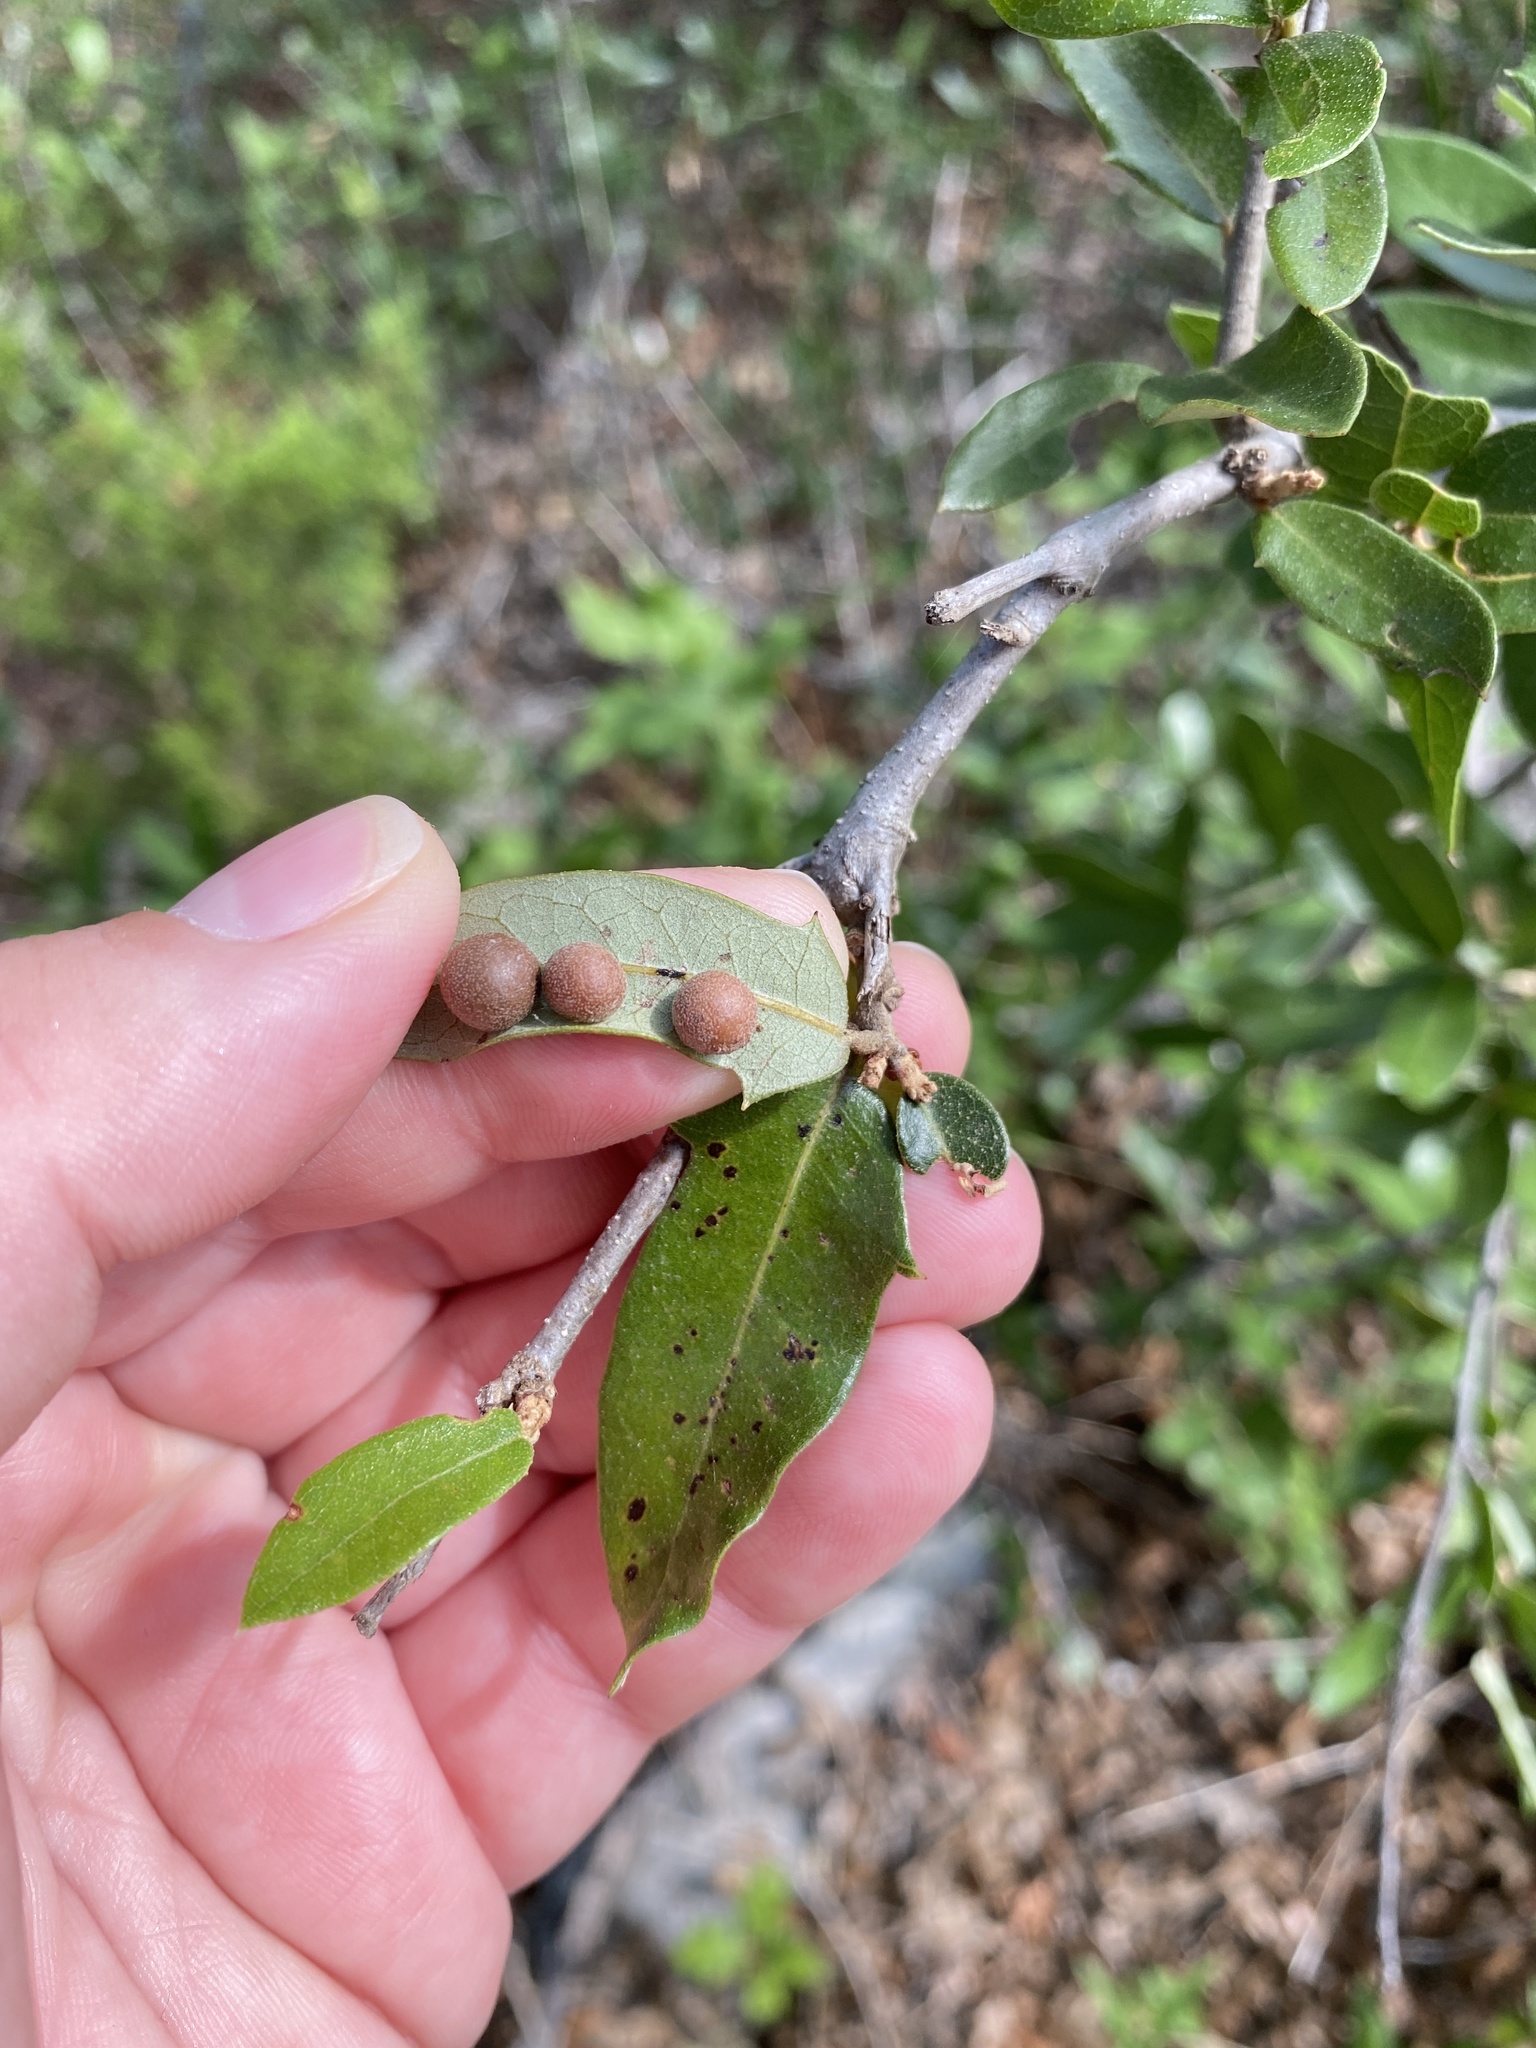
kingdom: Animalia
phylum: Arthropoda
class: Insecta
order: Hymenoptera
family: Cynipidae
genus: Belonocnema
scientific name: Belonocnema kinseyi
